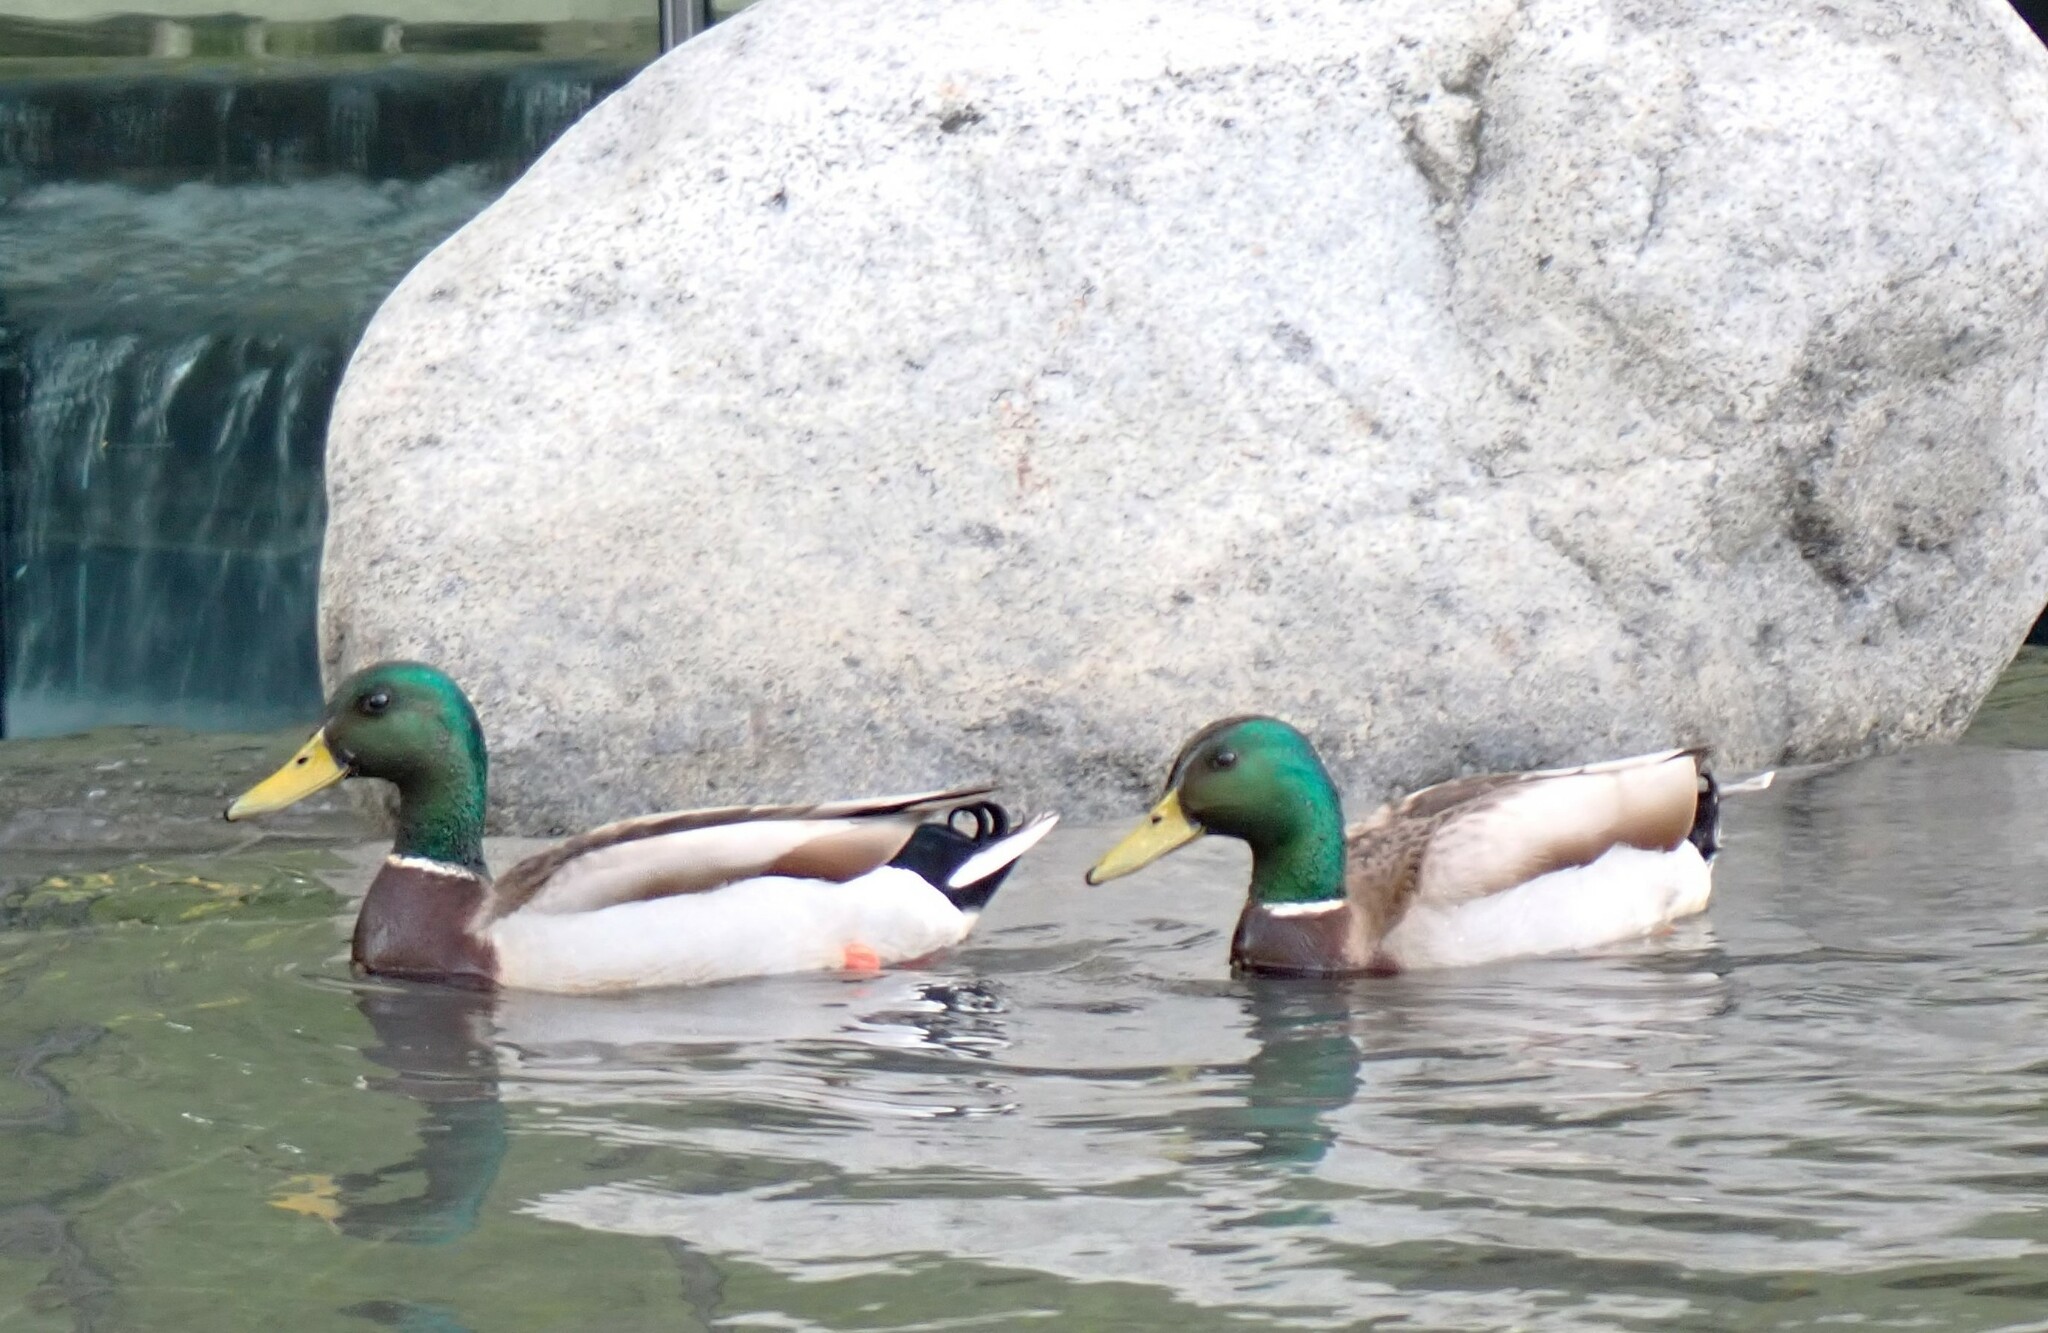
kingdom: Animalia
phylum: Chordata
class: Aves
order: Anseriformes
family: Anatidae
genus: Anas
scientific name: Anas platyrhynchos
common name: Mallard
